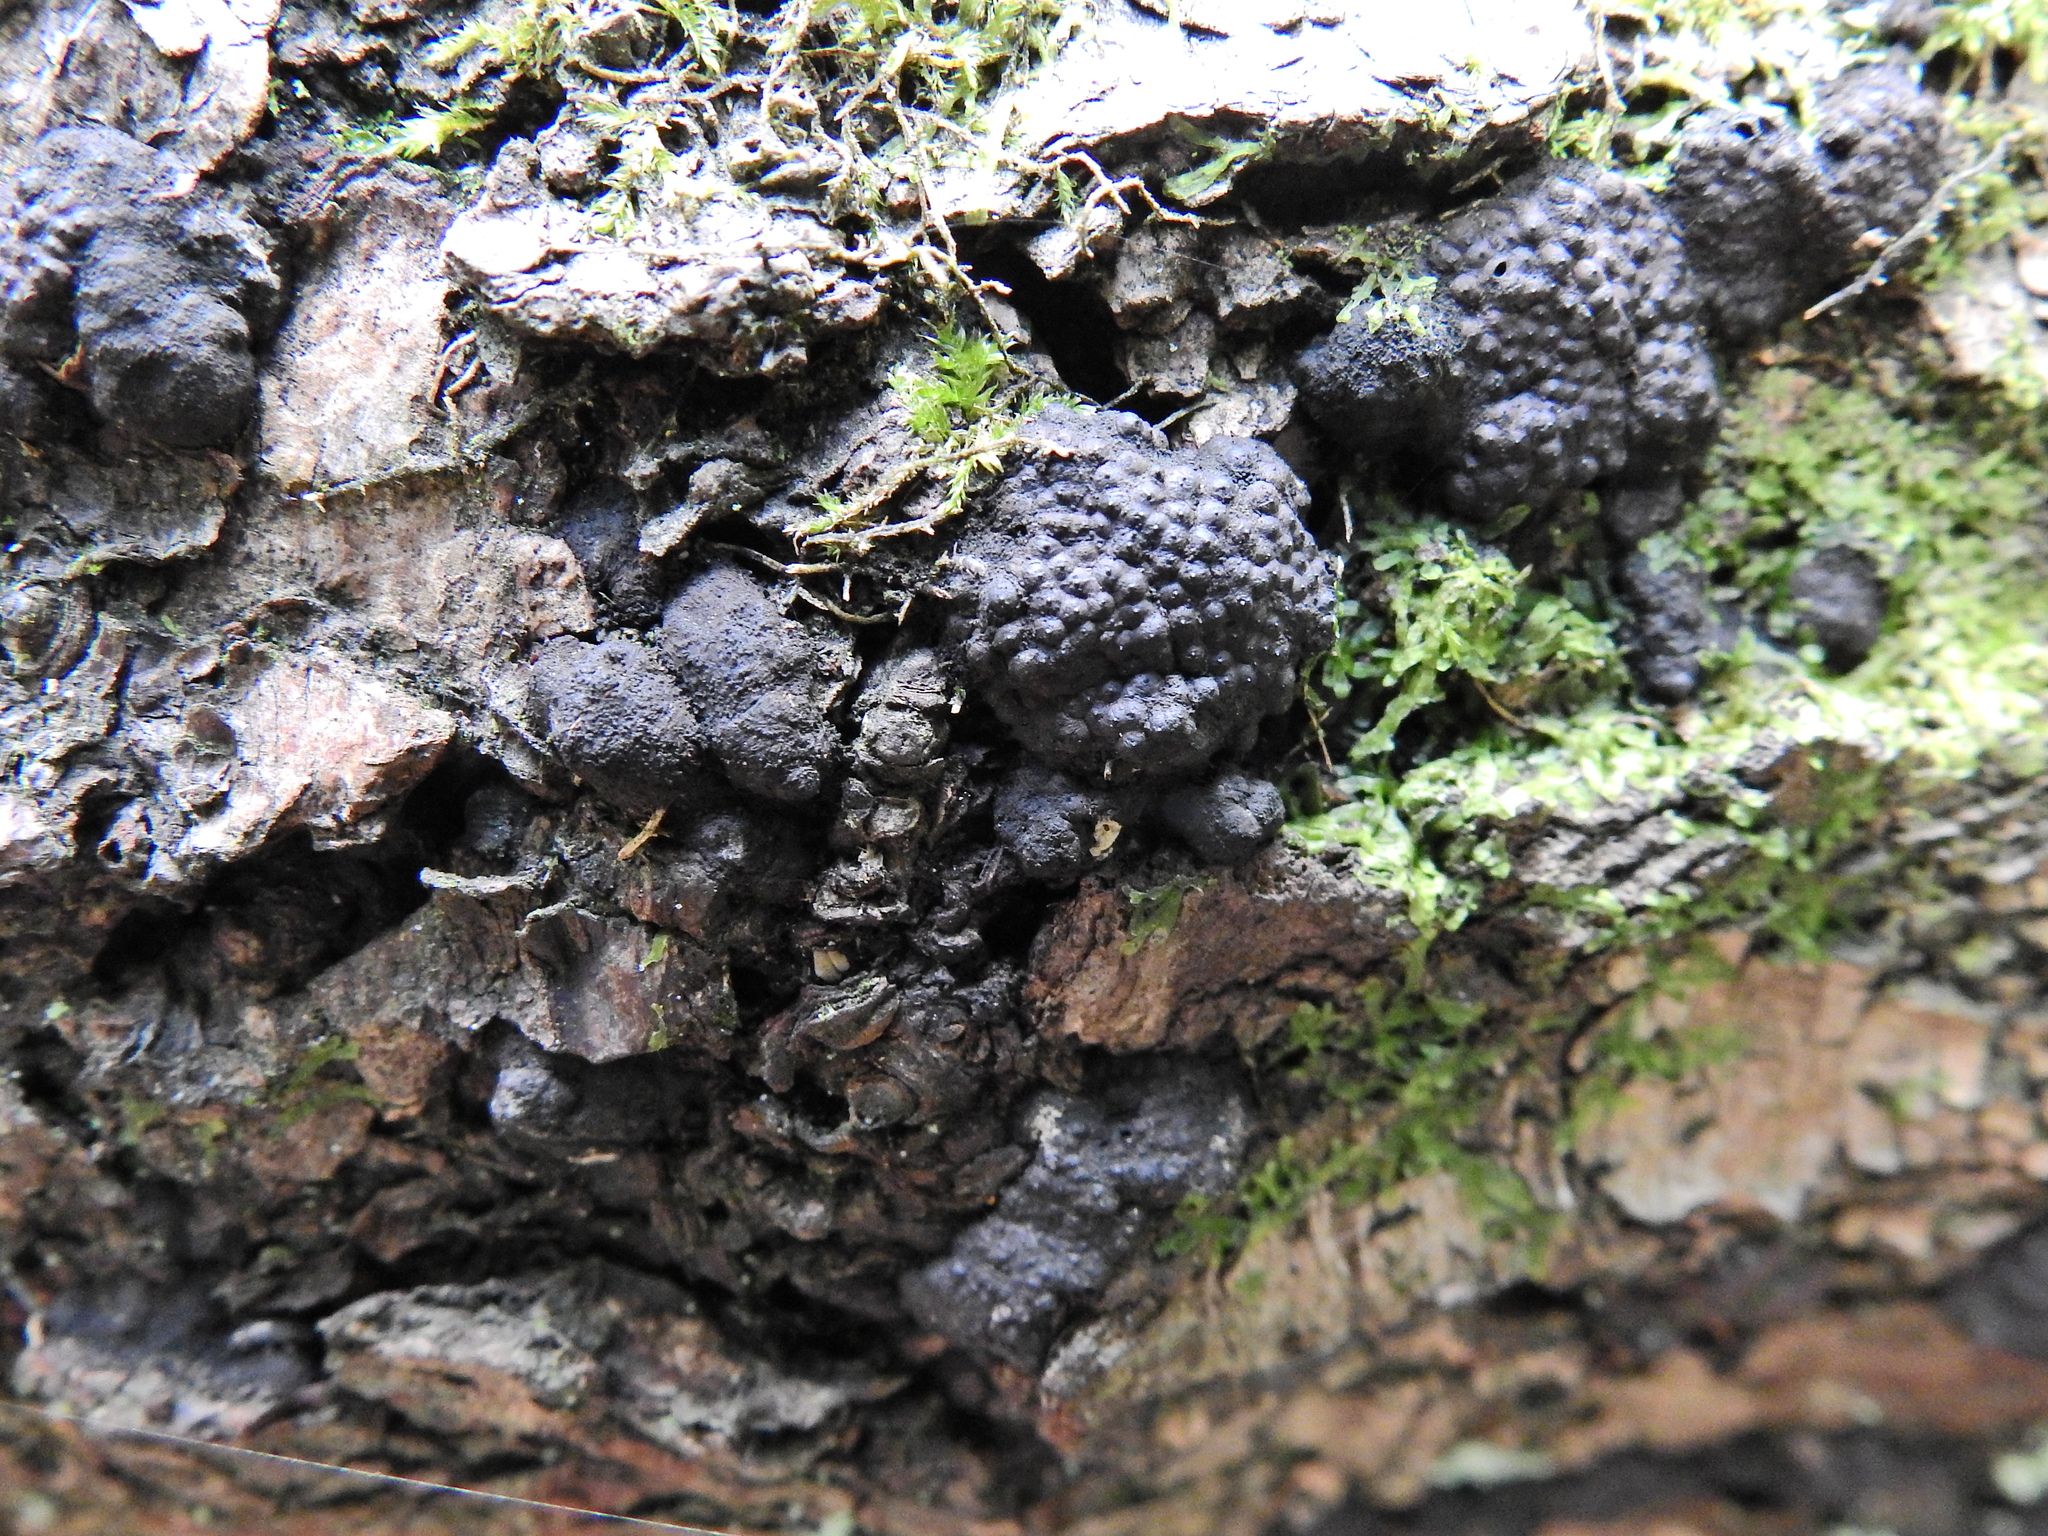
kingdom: Fungi
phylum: Ascomycota
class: Sordariomycetes
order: Xylariales
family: Hypoxylaceae
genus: Jackrogersella
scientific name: Jackrogersella multiformis
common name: Birch woodwart
